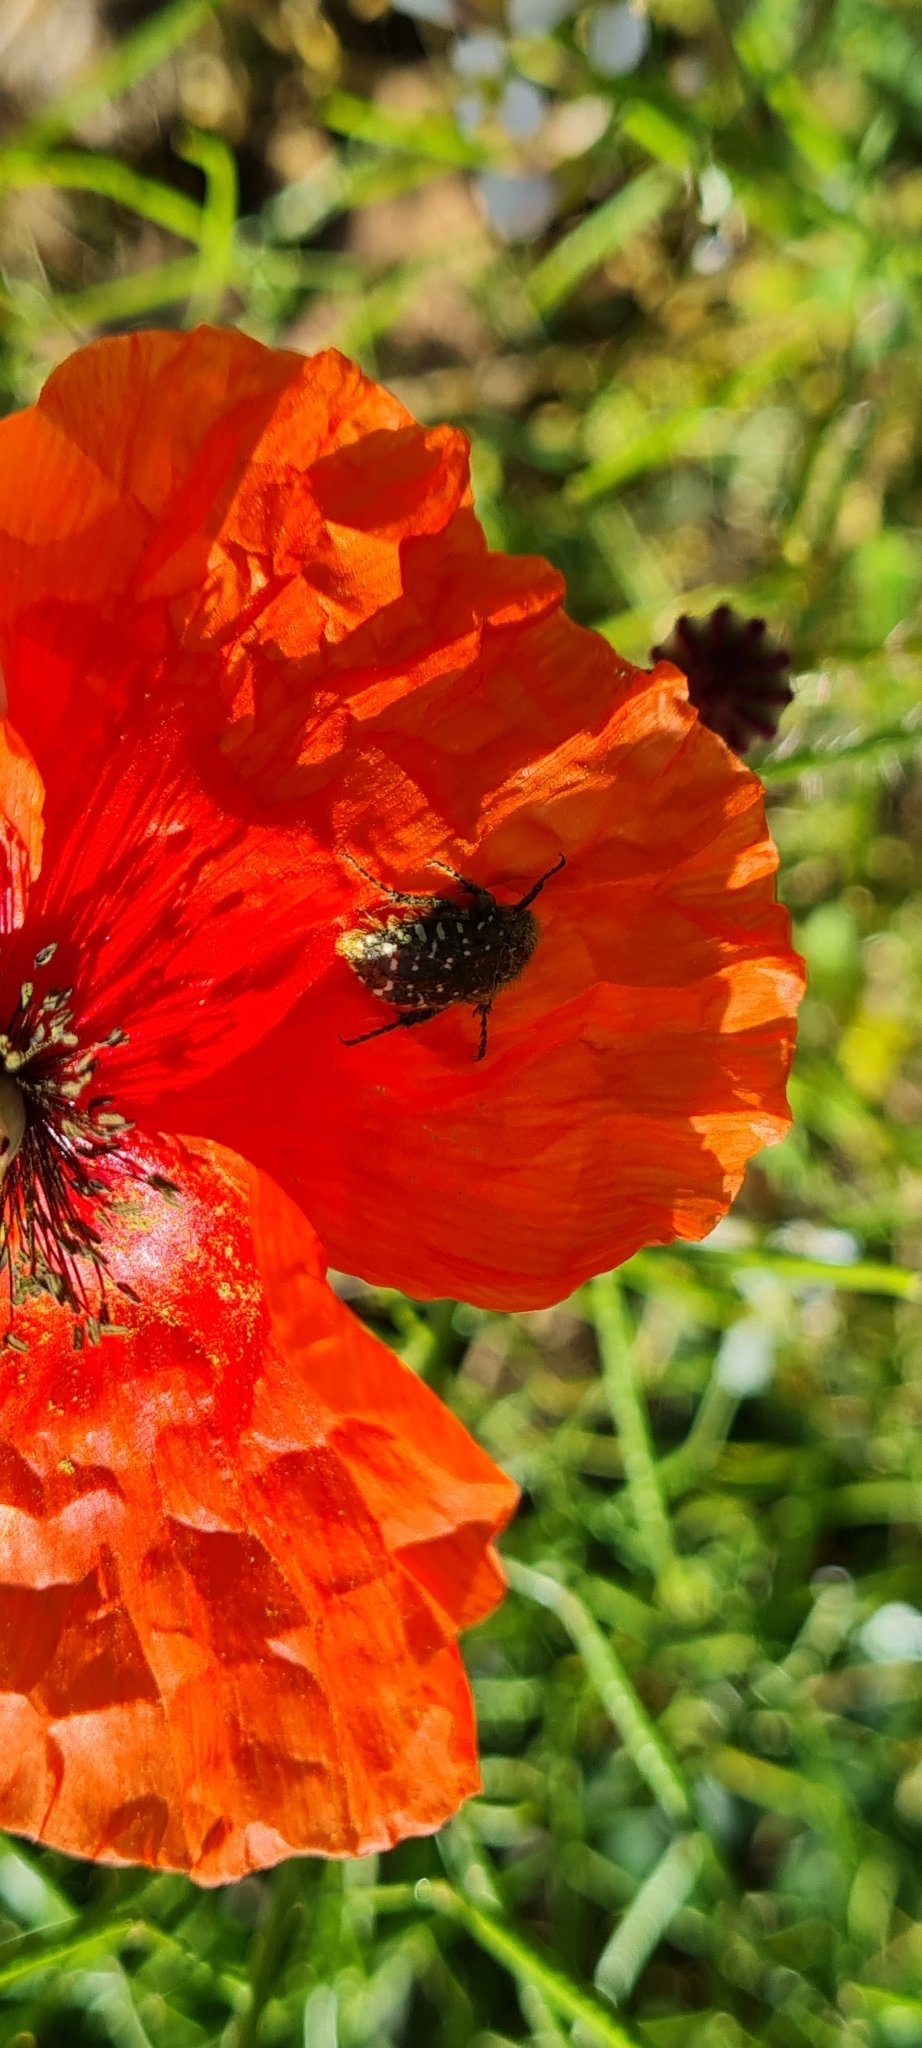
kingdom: Animalia
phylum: Arthropoda
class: Insecta
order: Coleoptera
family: Scarabaeidae
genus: Oxythyrea
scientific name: Oxythyrea funesta
